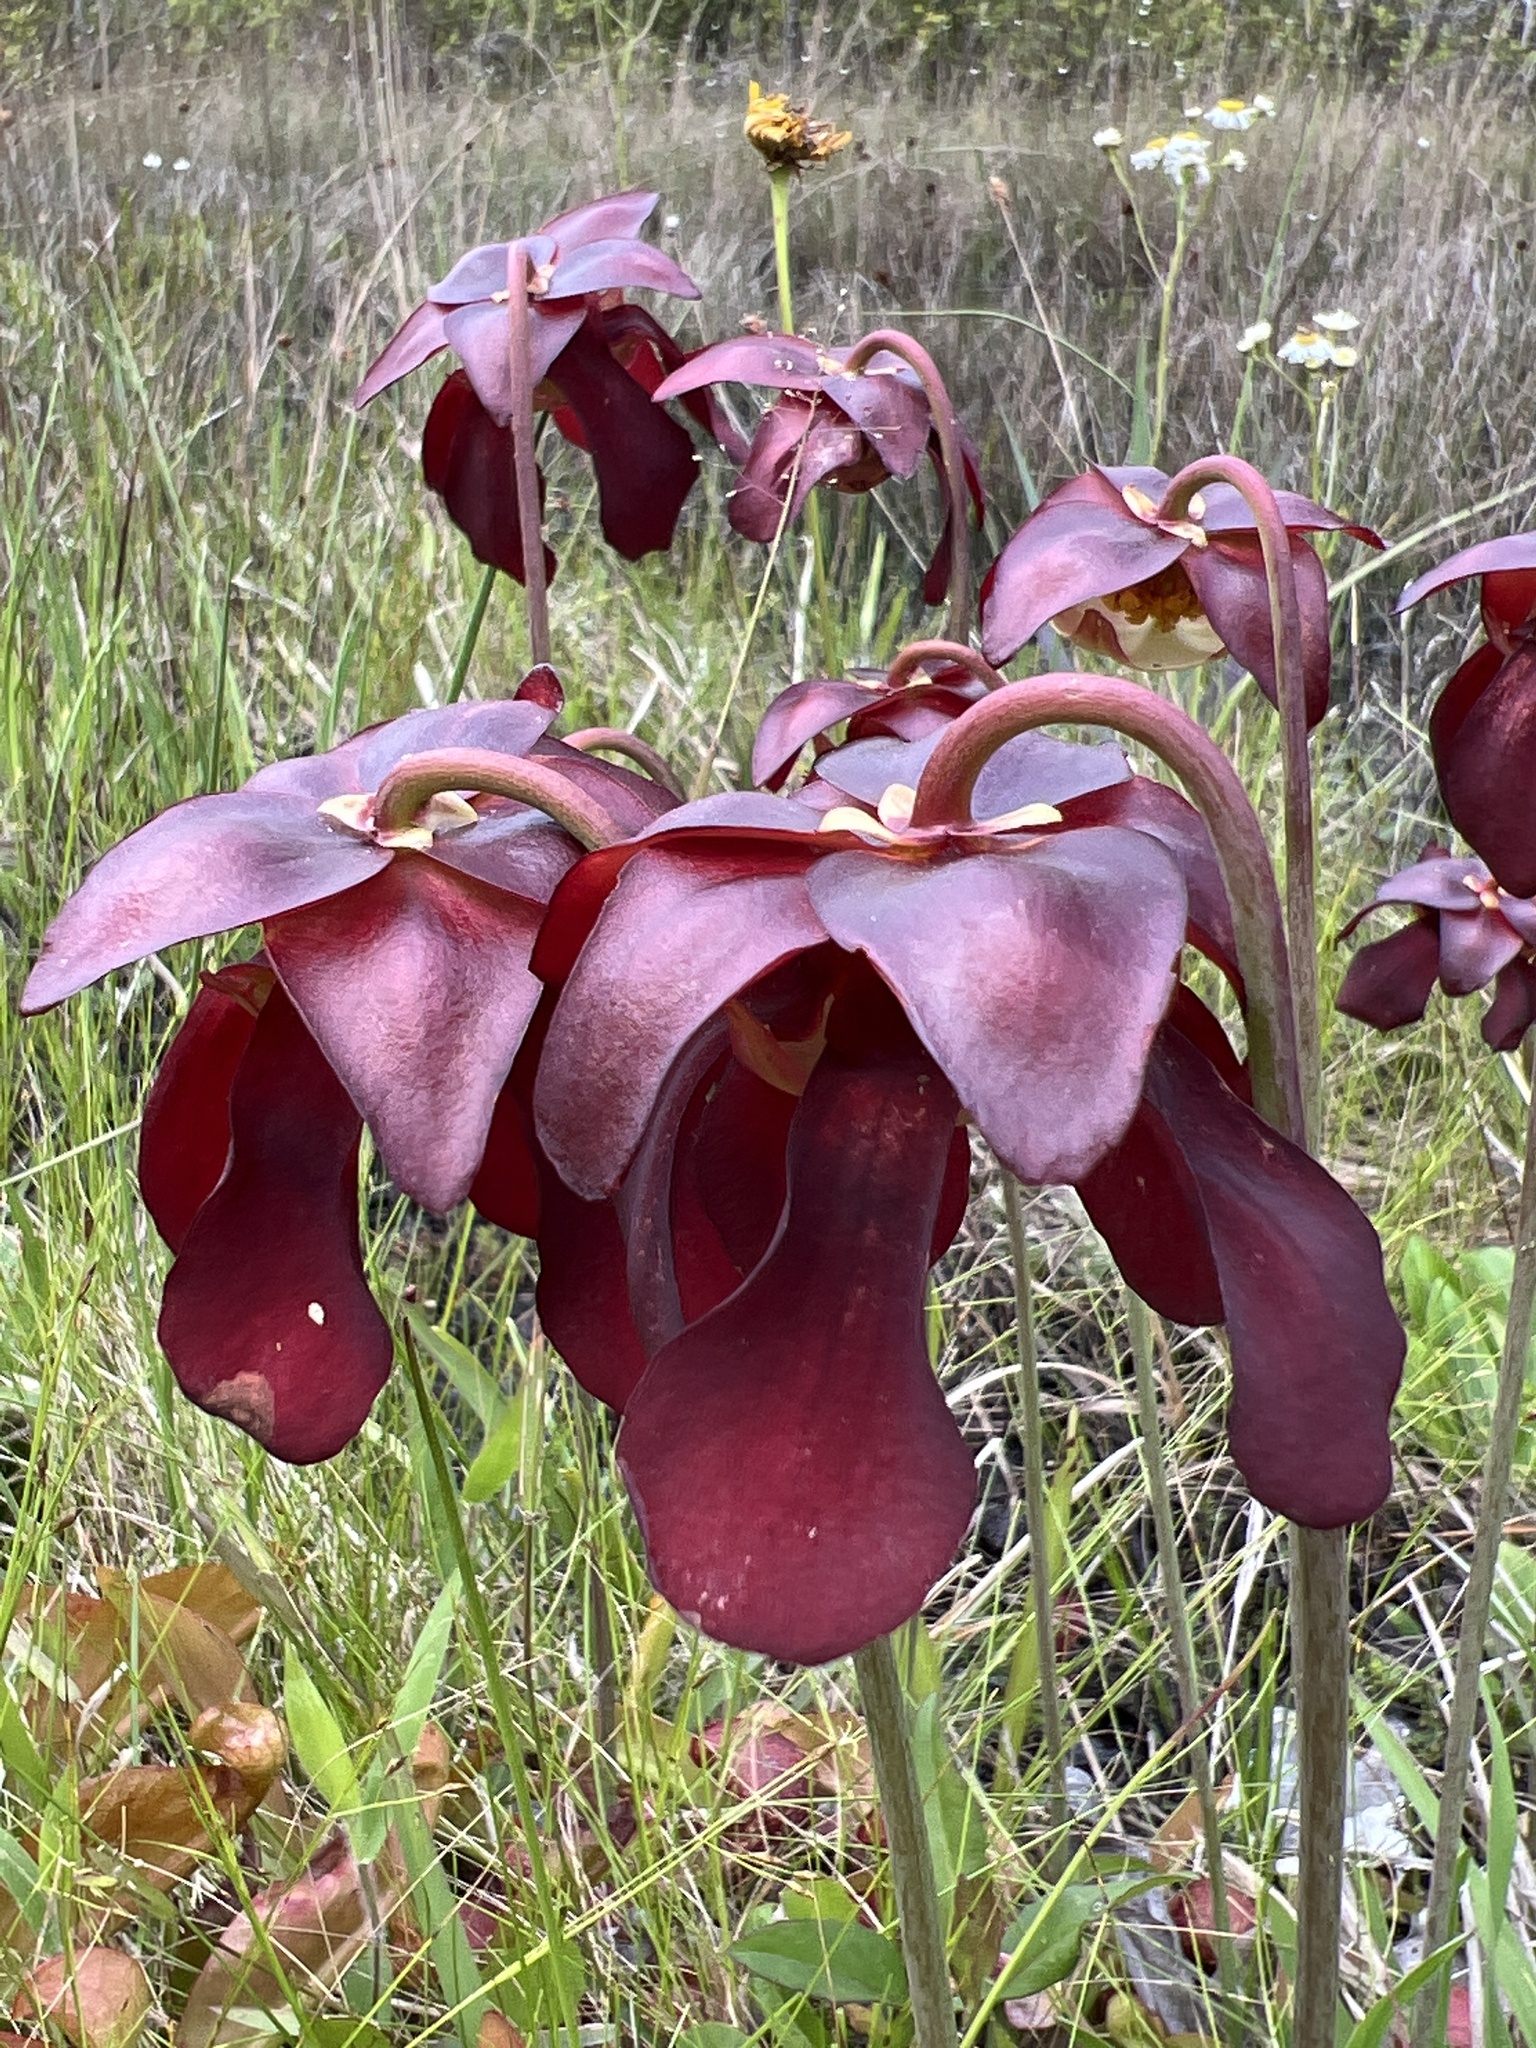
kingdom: Plantae
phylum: Tracheophyta
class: Magnoliopsida
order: Ericales
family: Sarraceniaceae
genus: Sarracenia
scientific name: Sarracenia psittacina
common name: Parrot pitcherplant
